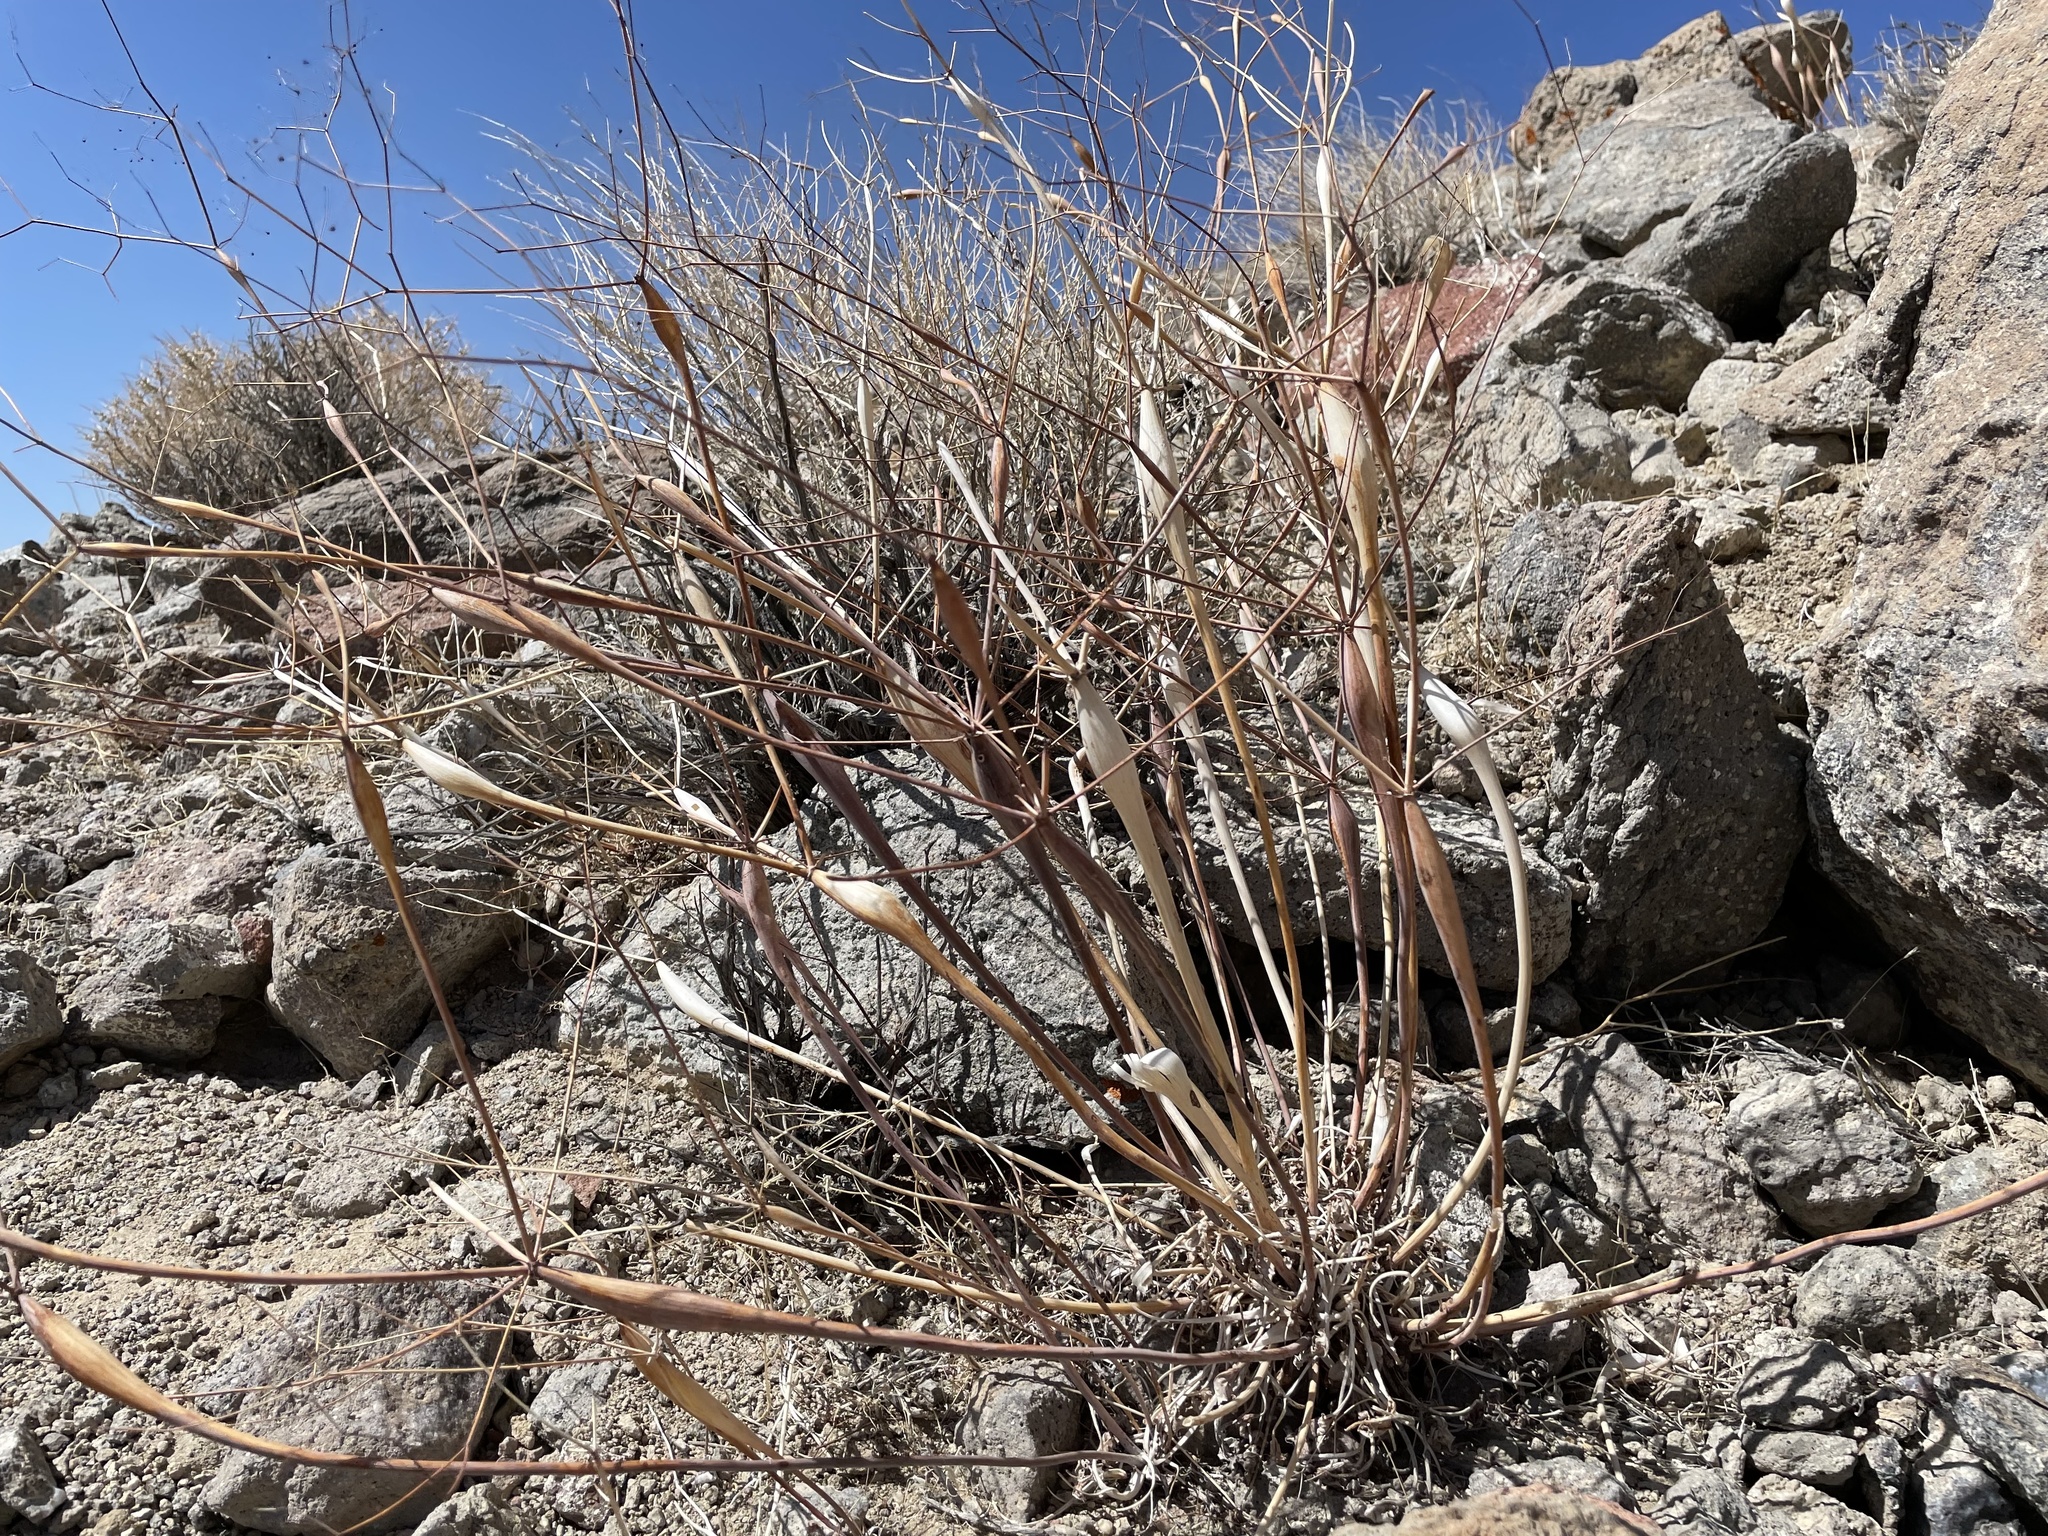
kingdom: Plantae
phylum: Tracheophyta
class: Magnoliopsida
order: Caryophyllales
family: Polygonaceae
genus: Eriogonum
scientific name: Eriogonum inflatum
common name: Desert trumpet
